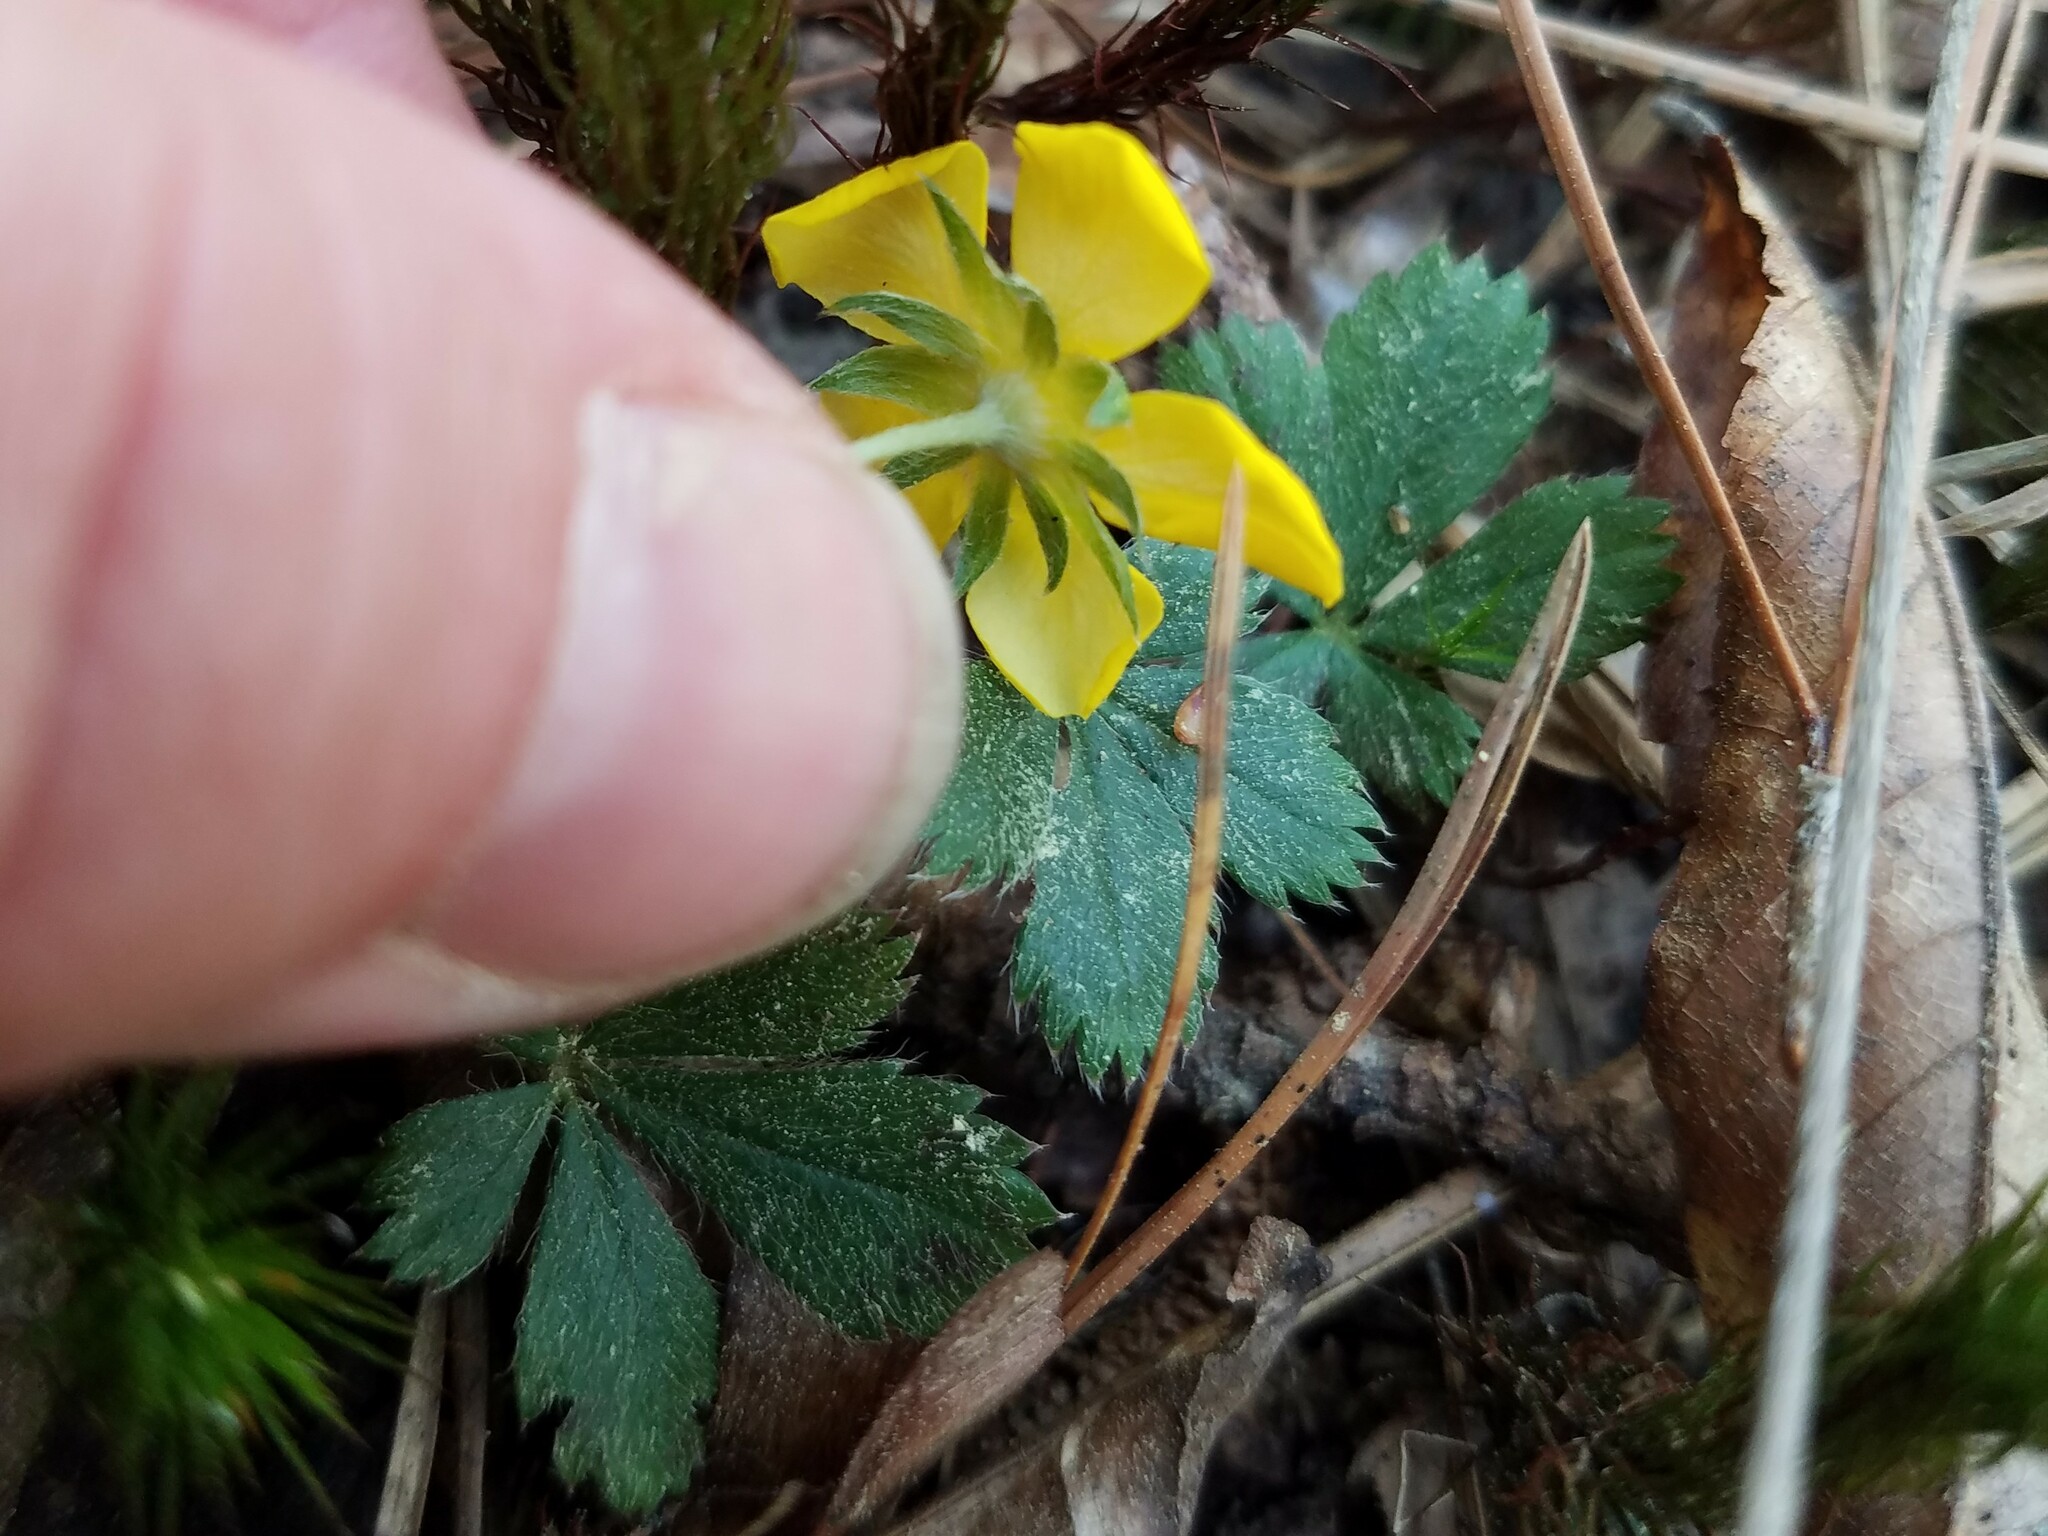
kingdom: Plantae
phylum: Tracheophyta
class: Magnoliopsida
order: Rosales
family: Rosaceae
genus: Potentilla
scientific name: Potentilla canadensis
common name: Canada cinquefoil
